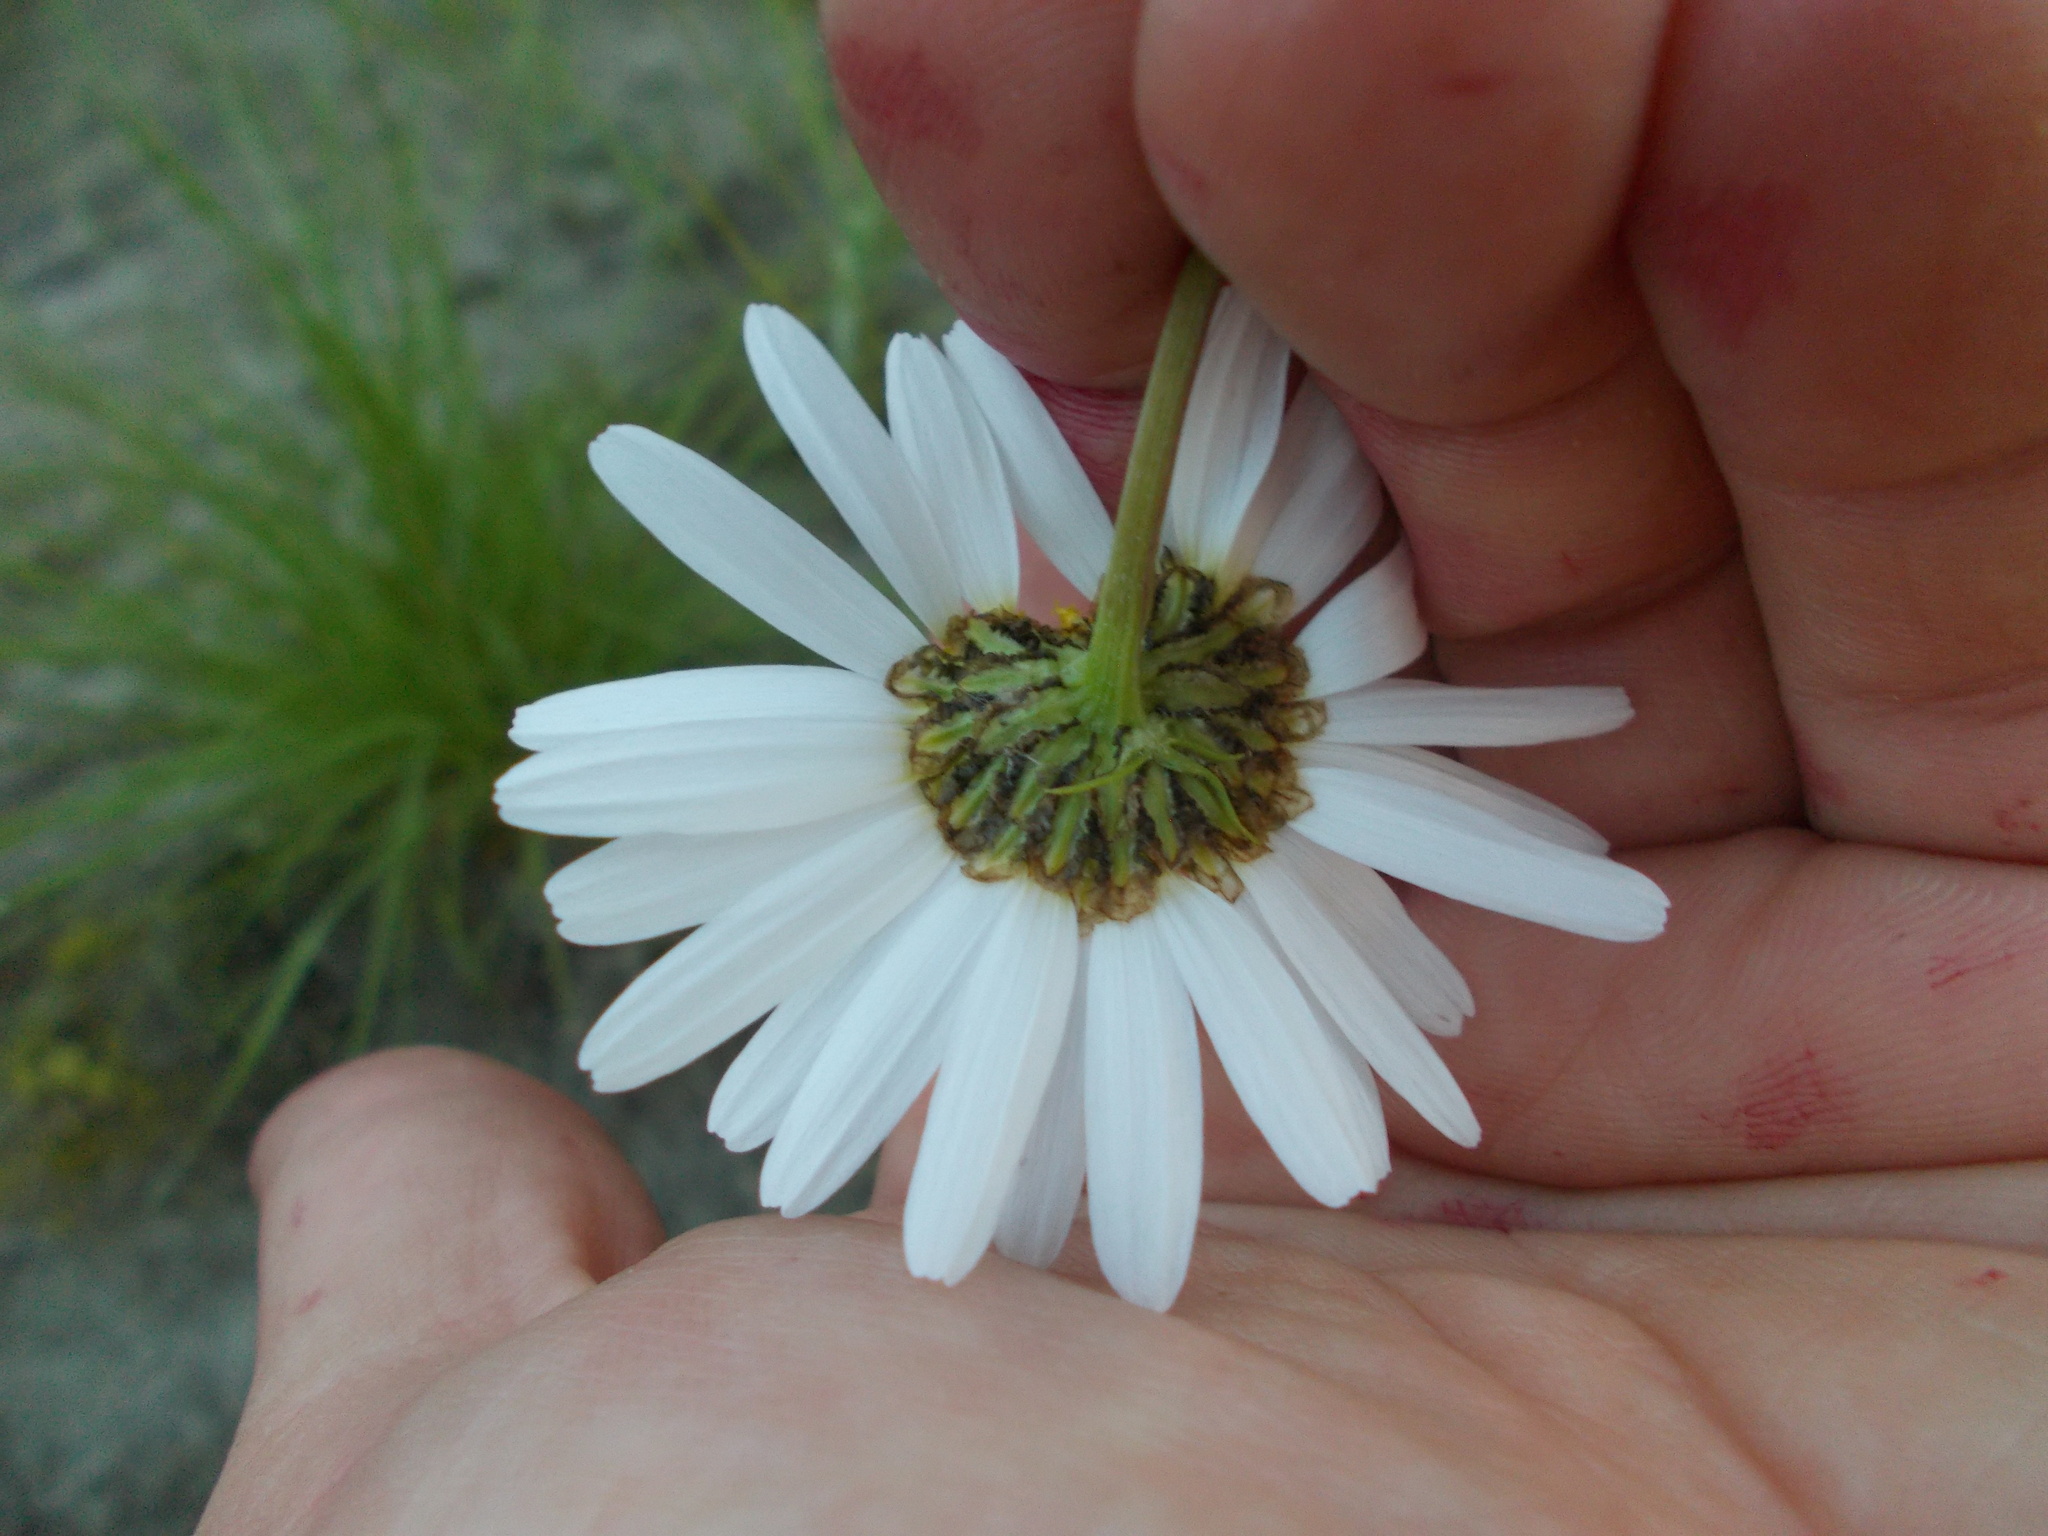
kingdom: Plantae
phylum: Tracheophyta
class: Magnoliopsida
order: Asterales
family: Asteraceae
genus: Tripleurospermum
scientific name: Tripleurospermum inodorum
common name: Scentless mayweed
